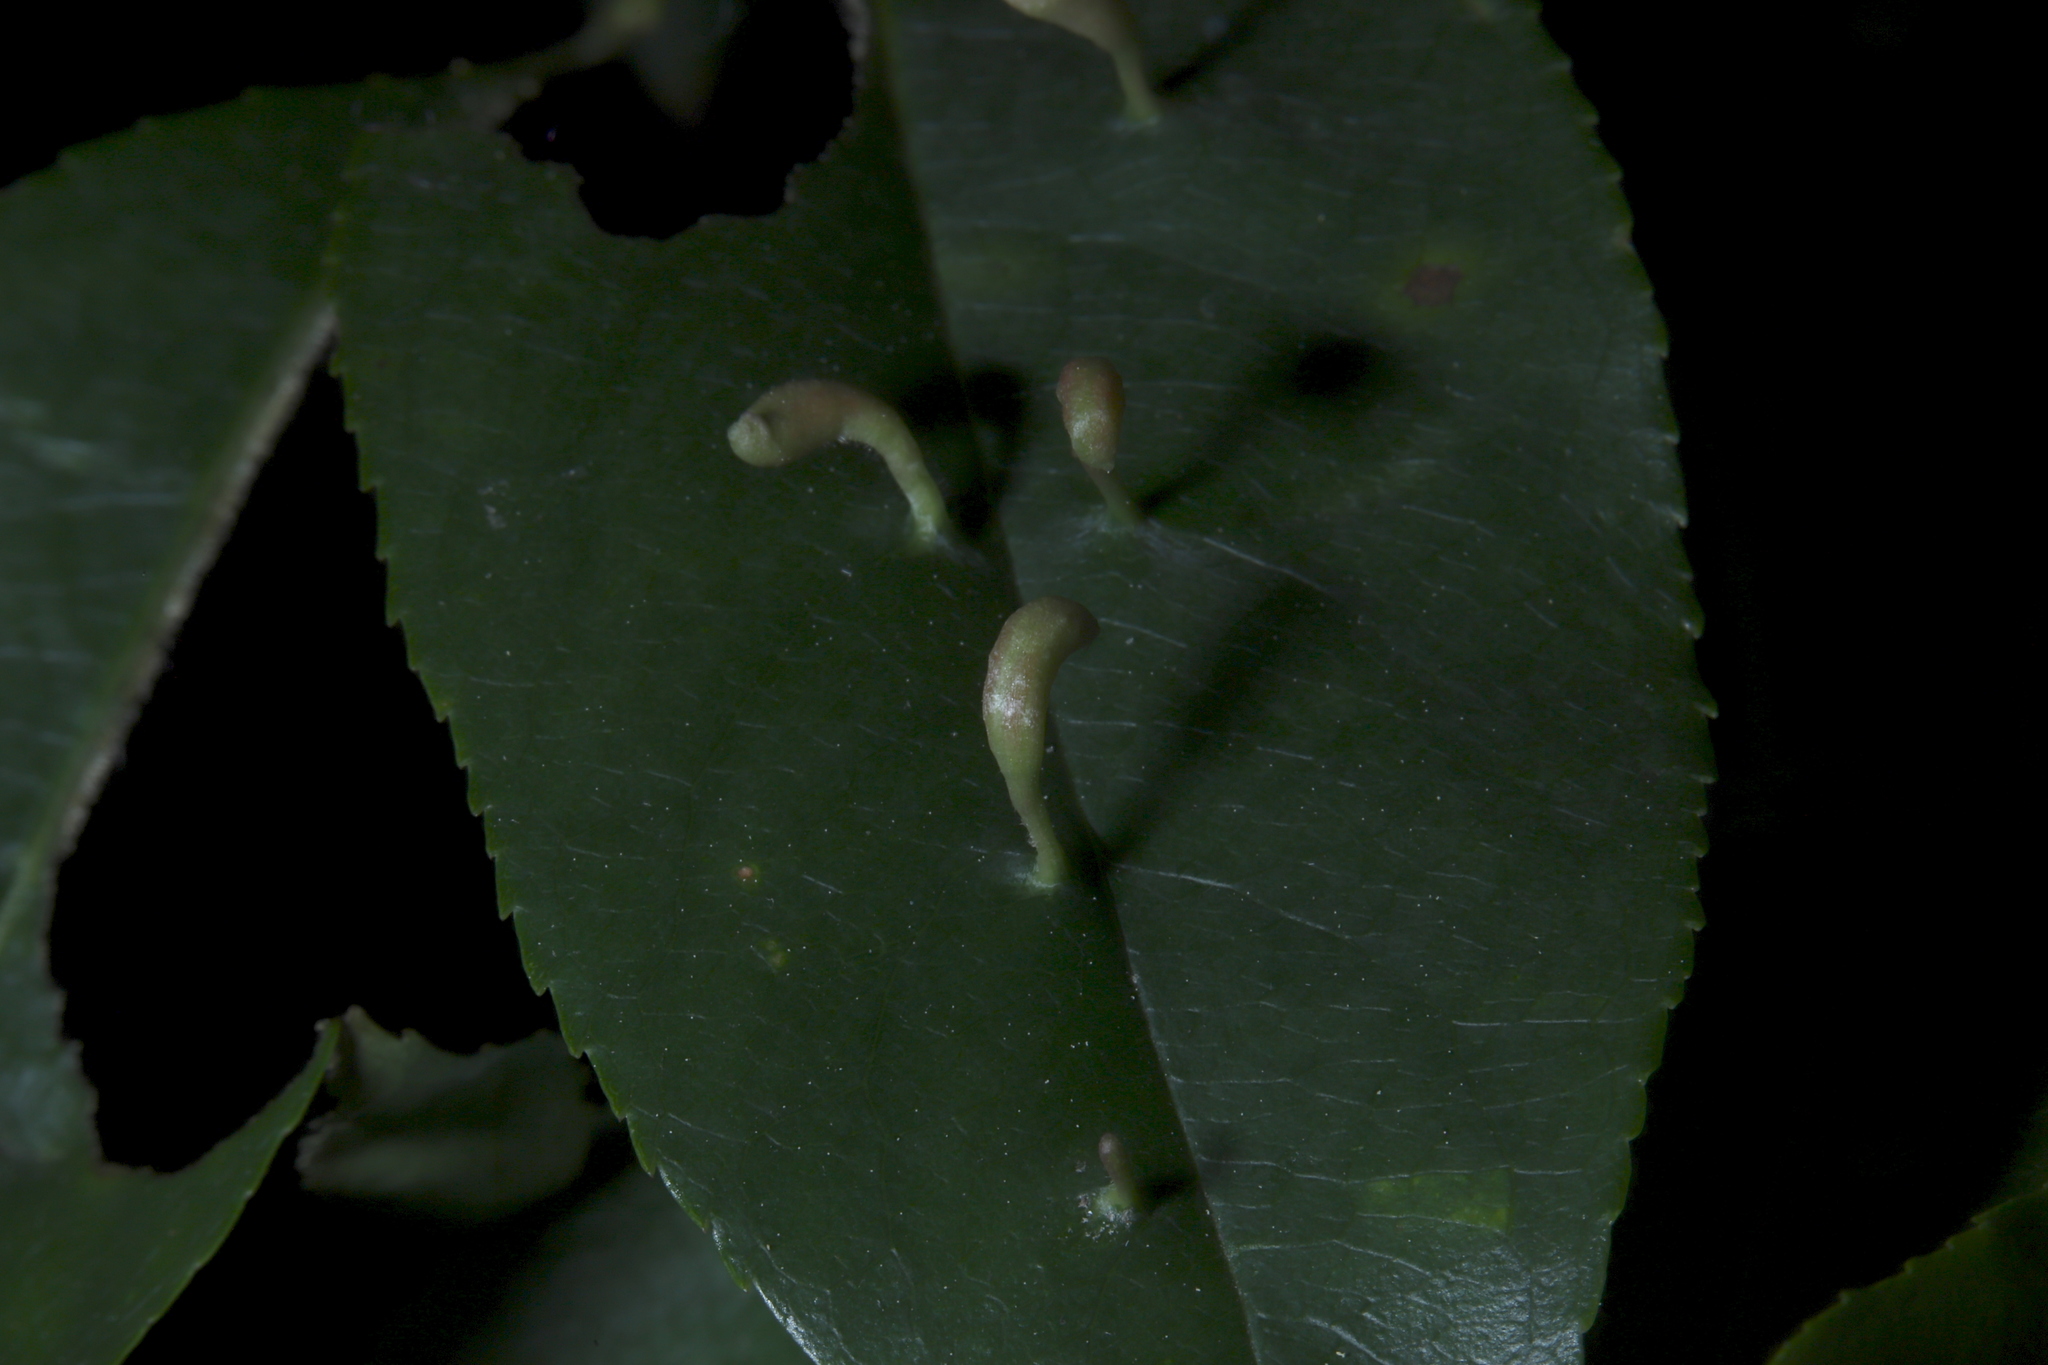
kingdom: Animalia
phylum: Arthropoda
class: Arachnida
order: Trombidiformes
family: Eriophyidae
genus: Eriophyes
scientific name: Eriophyes
